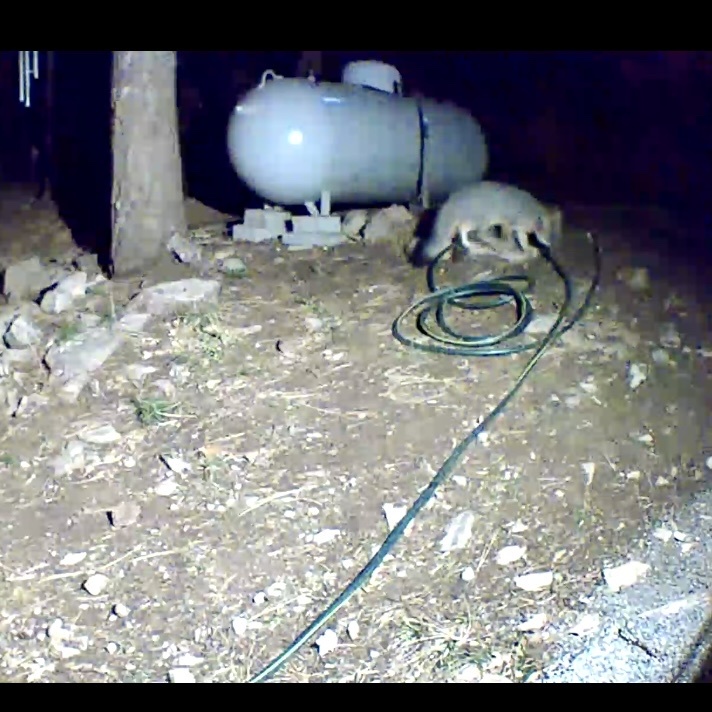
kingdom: Animalia
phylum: Chordata
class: Mammalia
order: Carnivora
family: Canidae
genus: Urocyon
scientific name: Urocyon cinereoargenteus
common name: Gray fox
